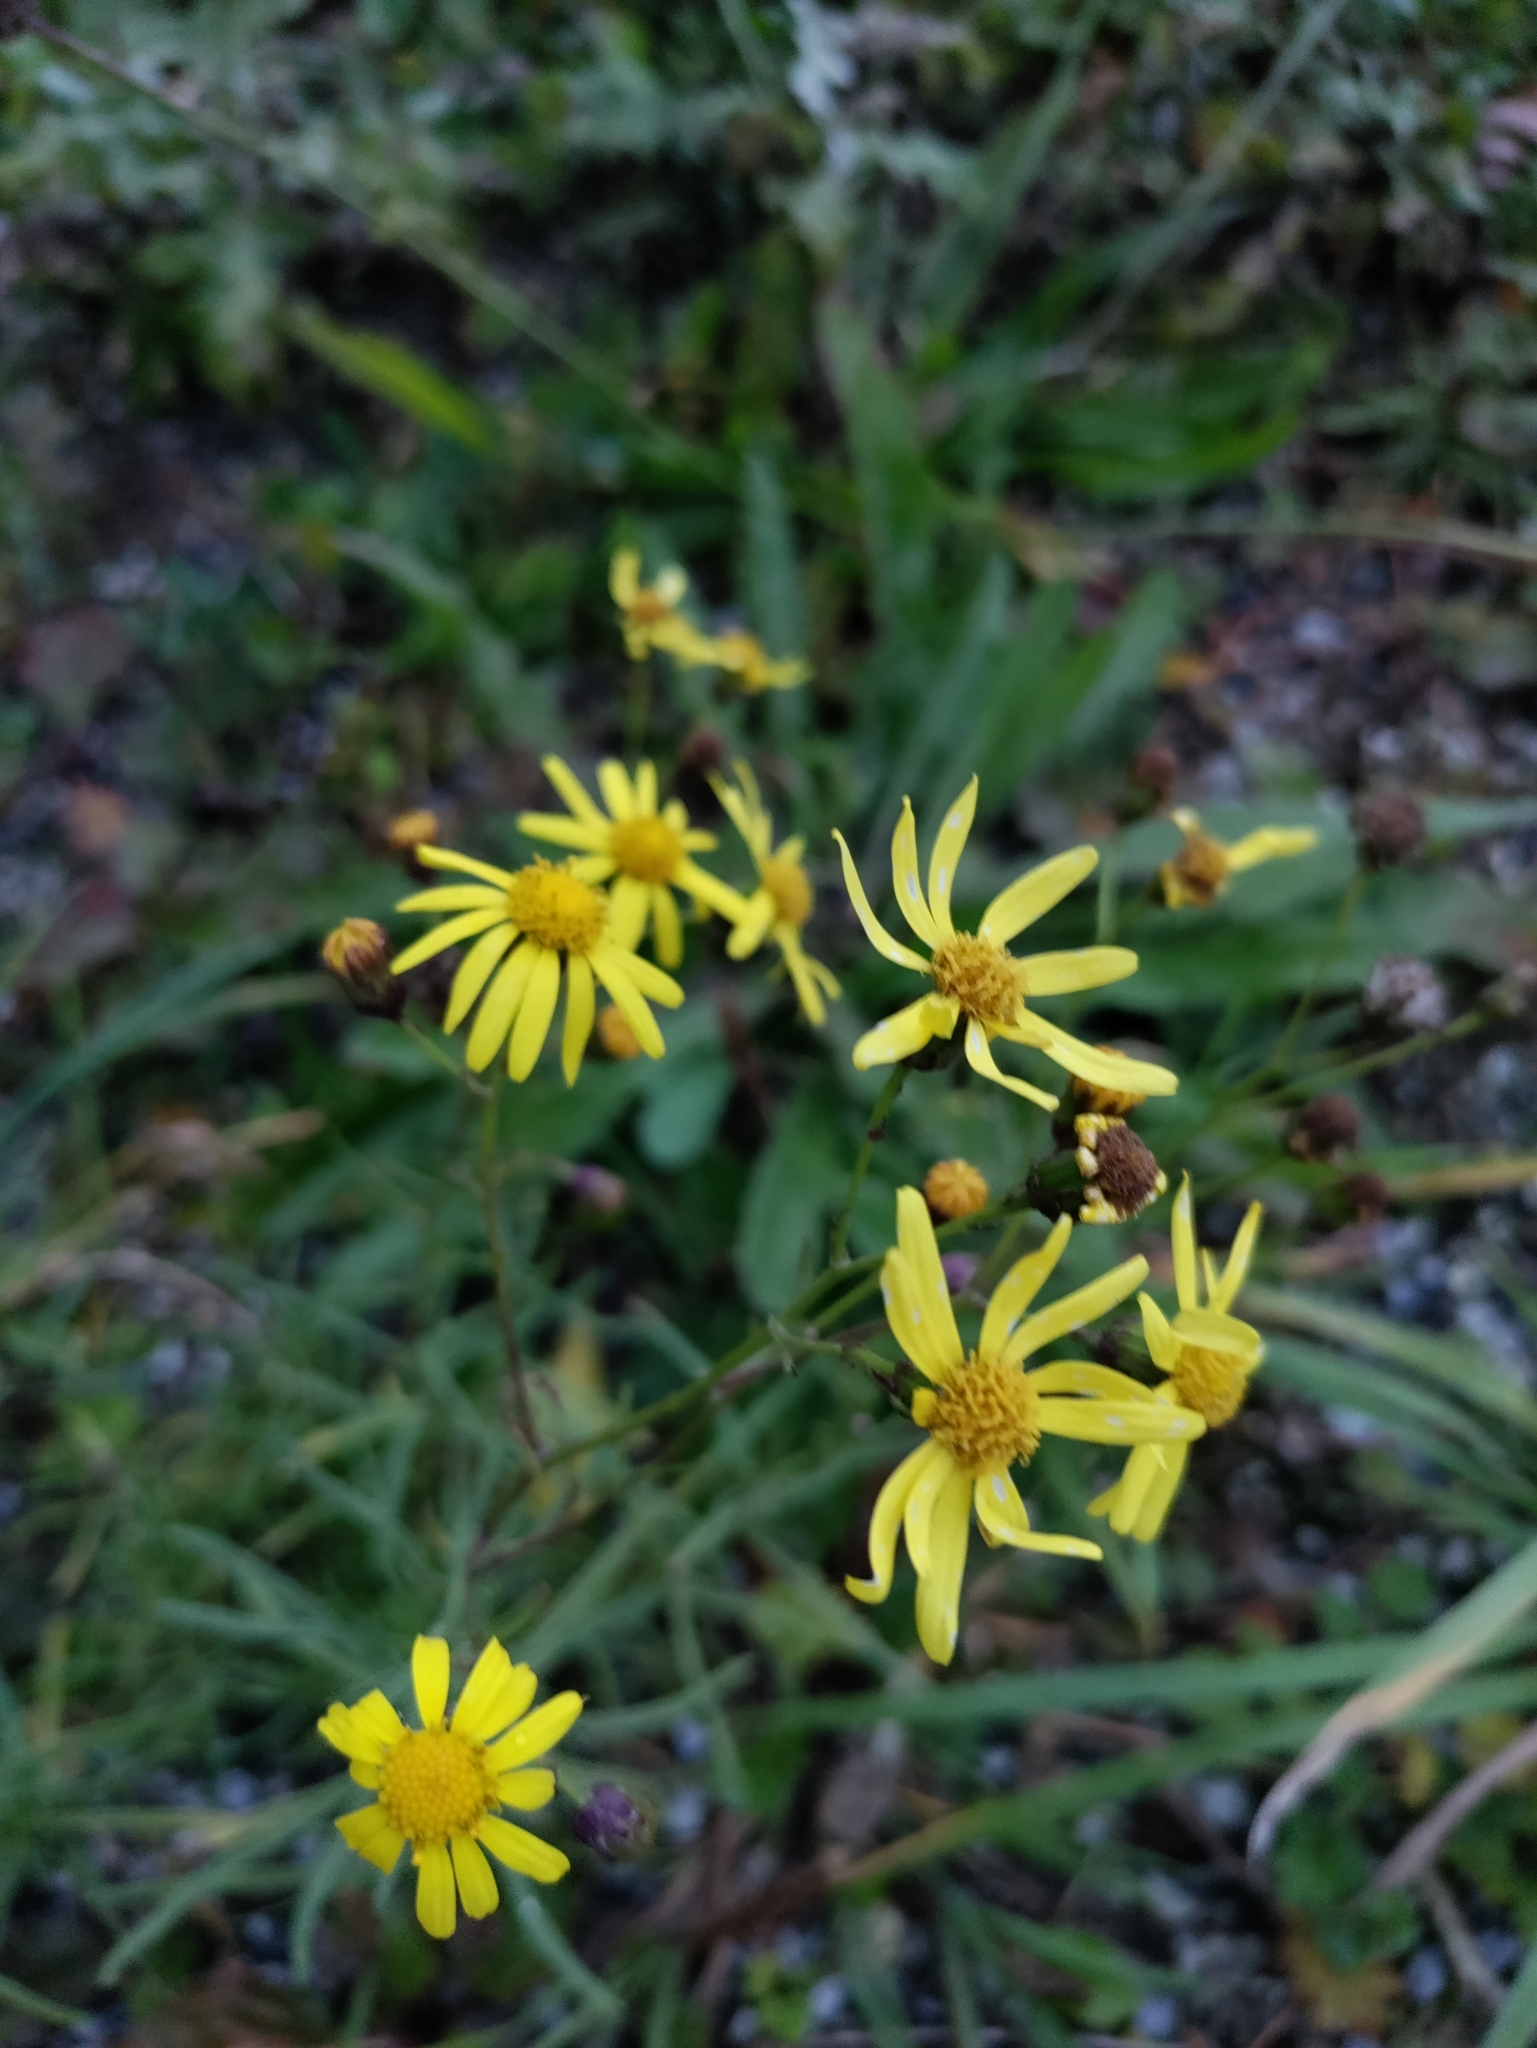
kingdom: Plantae
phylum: Tracheophyta
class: Magnoliopsida
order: Asterales
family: Asteraceae
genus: Senecio
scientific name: Senecio inaequidens
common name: Narrow-leaved ragwort
